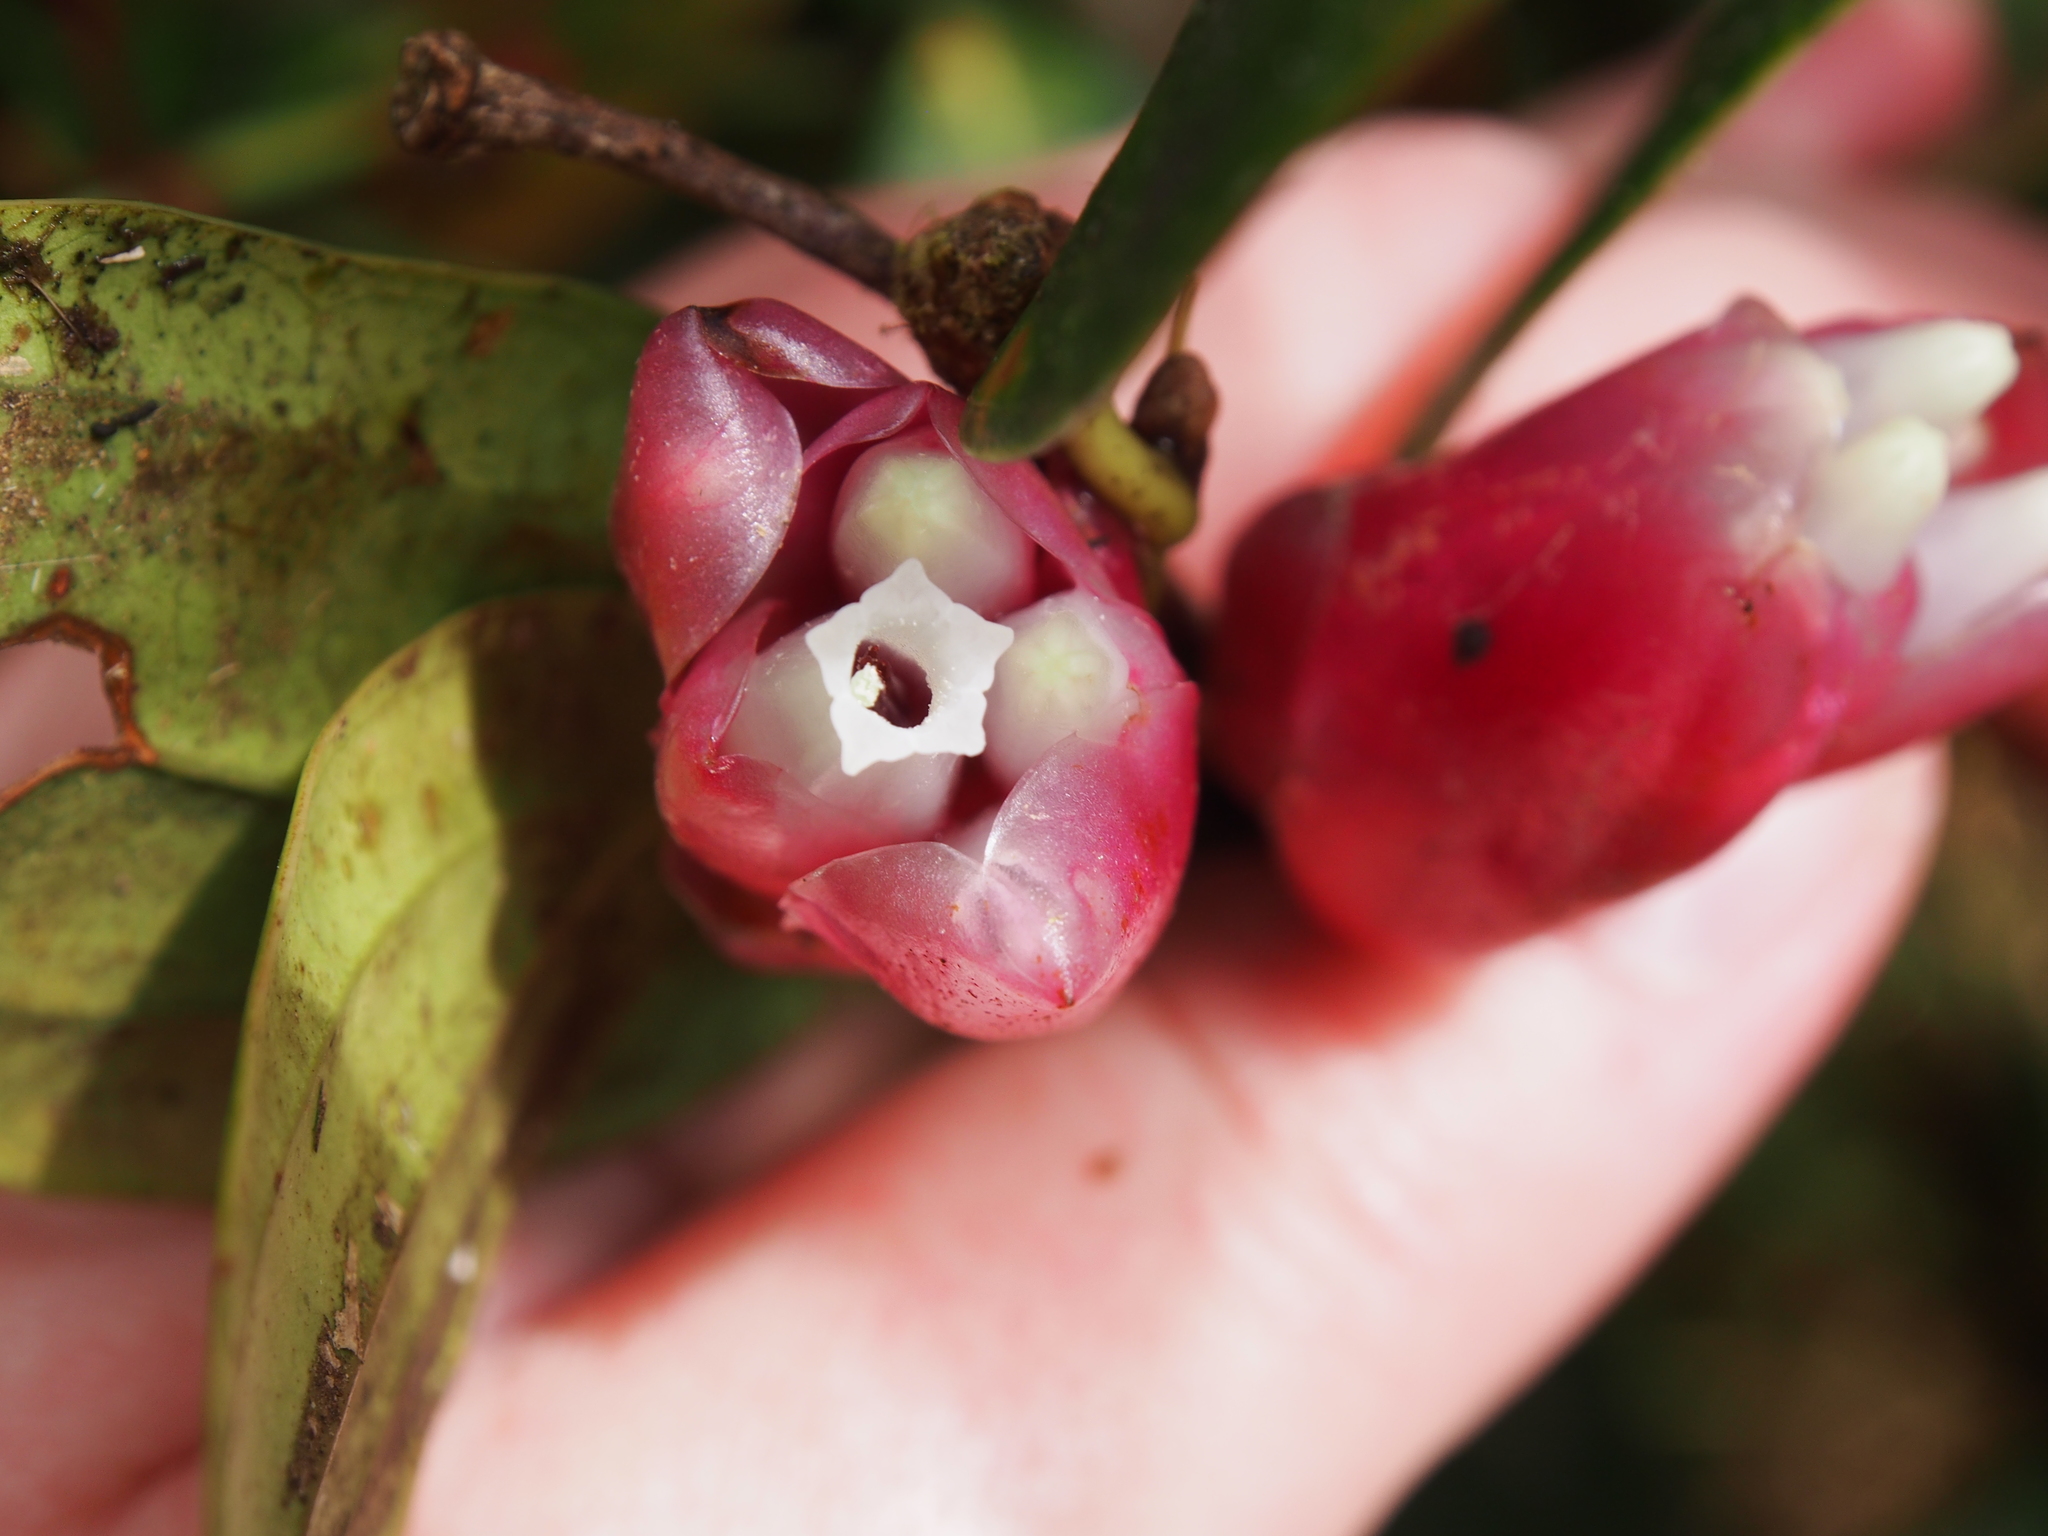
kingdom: Plantae
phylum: Tracheophyta
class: Magnoliopsida
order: Ericales
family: Ericaceae
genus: Cavendishia
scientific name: Cavendishia bracteata
